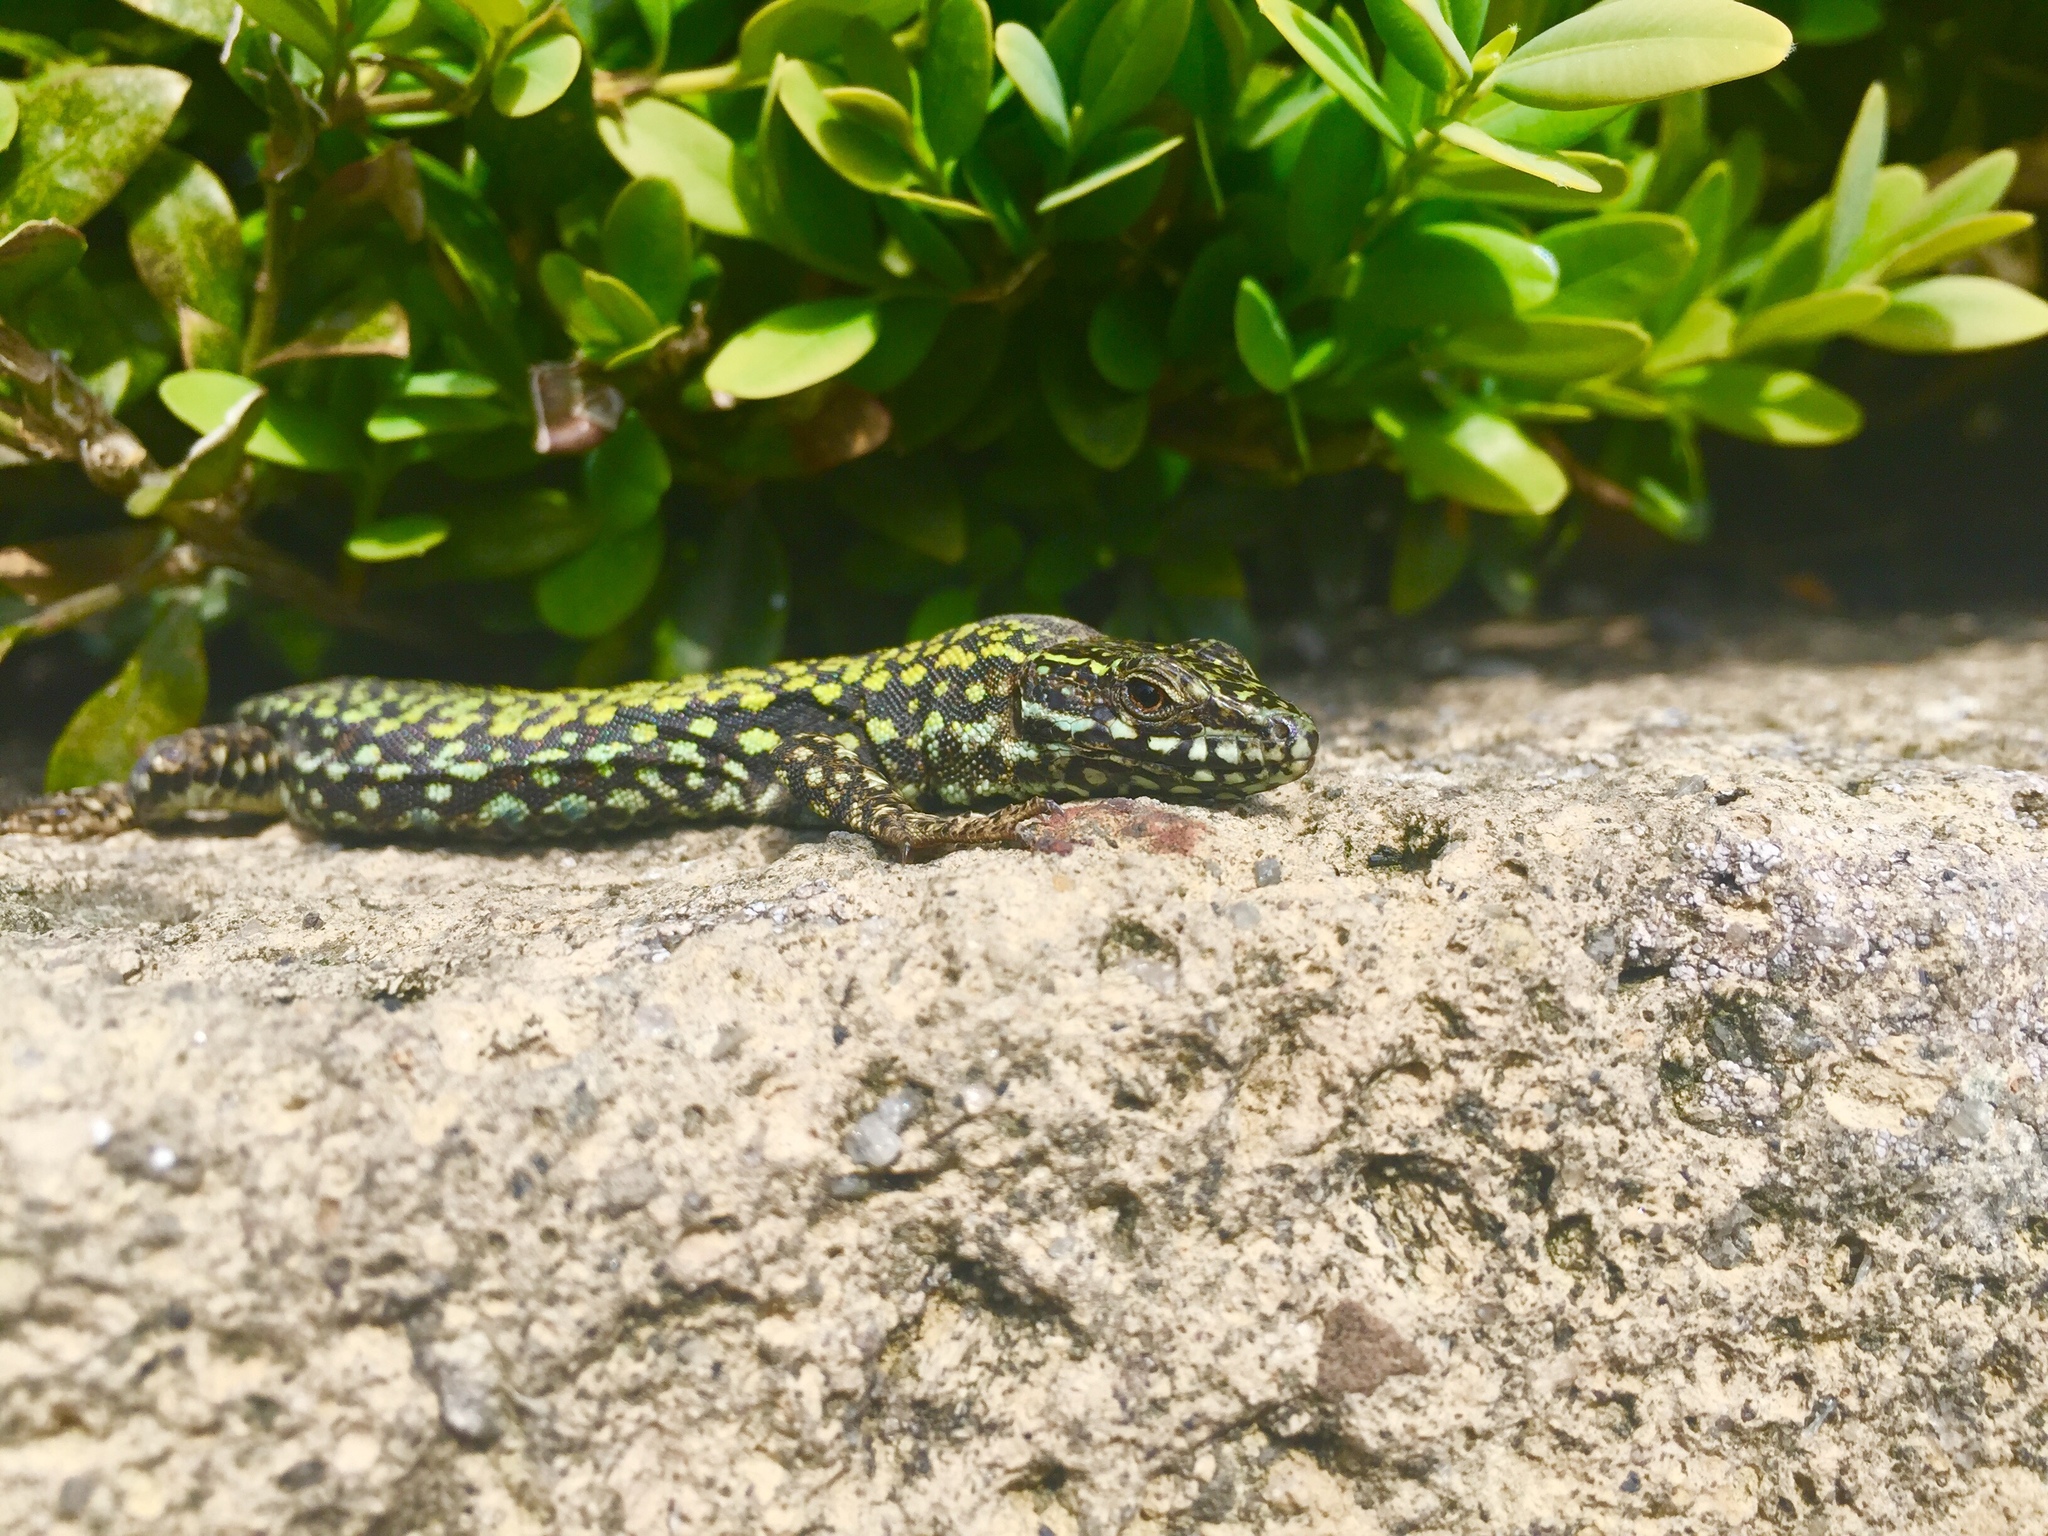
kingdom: Animalia
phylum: Chordata
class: Squamata
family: Lacertidae
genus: Podarcis
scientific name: Podarcis muralis
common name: Common wall lizard
